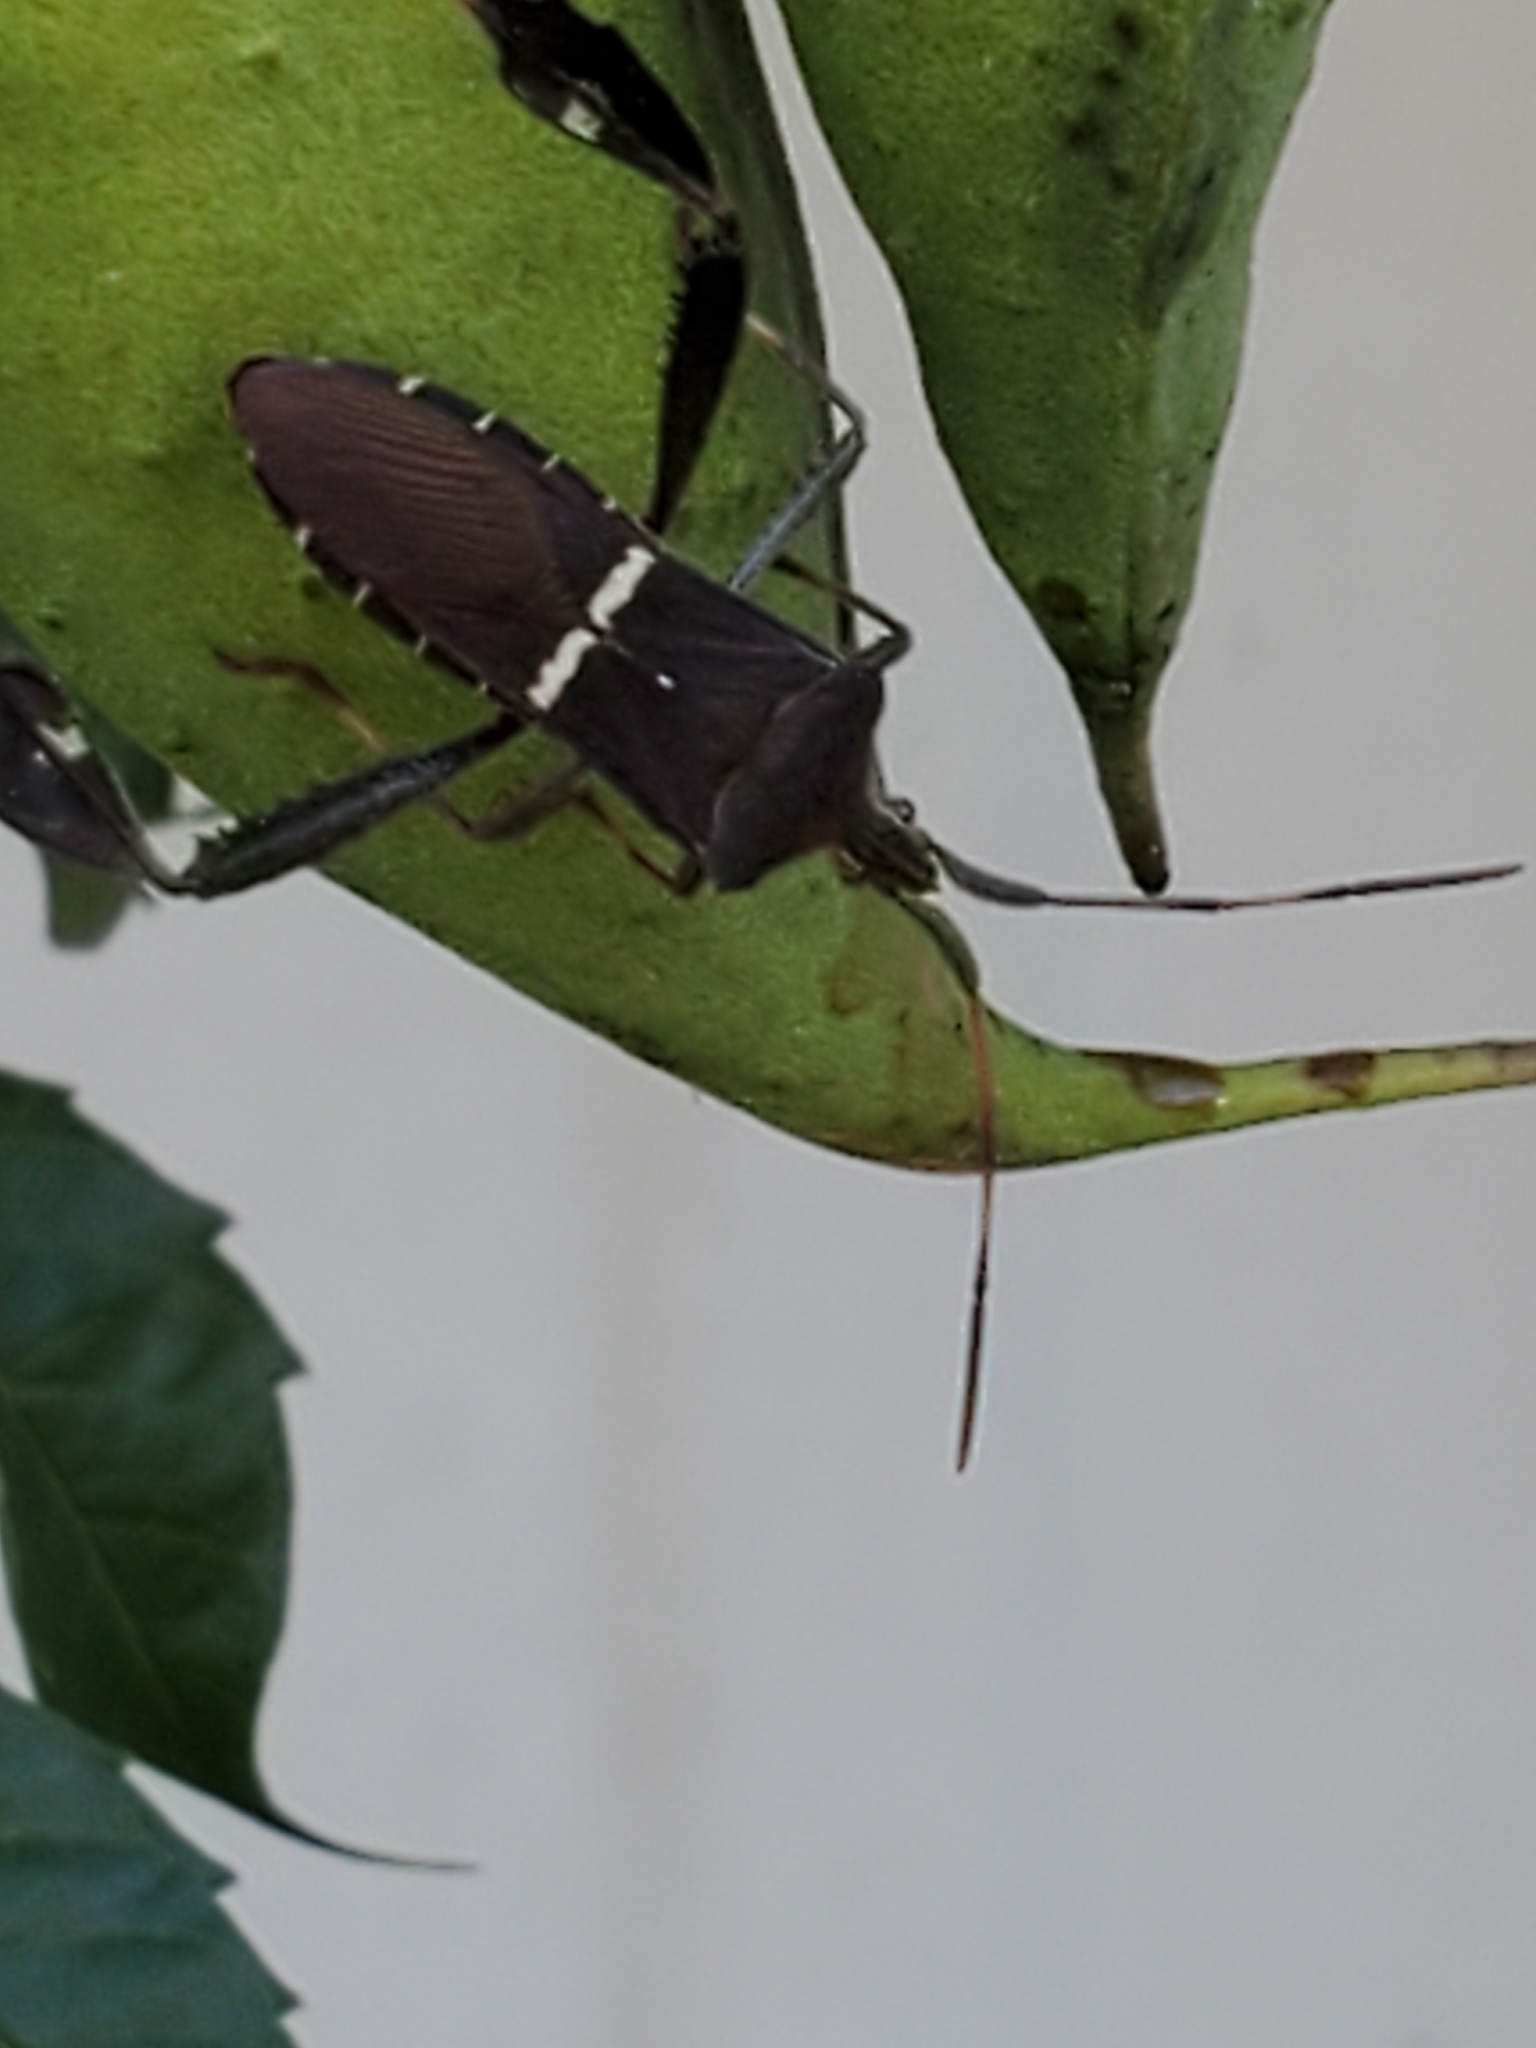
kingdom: Animalia
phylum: Arthropoda
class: Insecta
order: Hemiptera
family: Coreidae
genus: Leptoglossus
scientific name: Leptoglossus phyllopus
